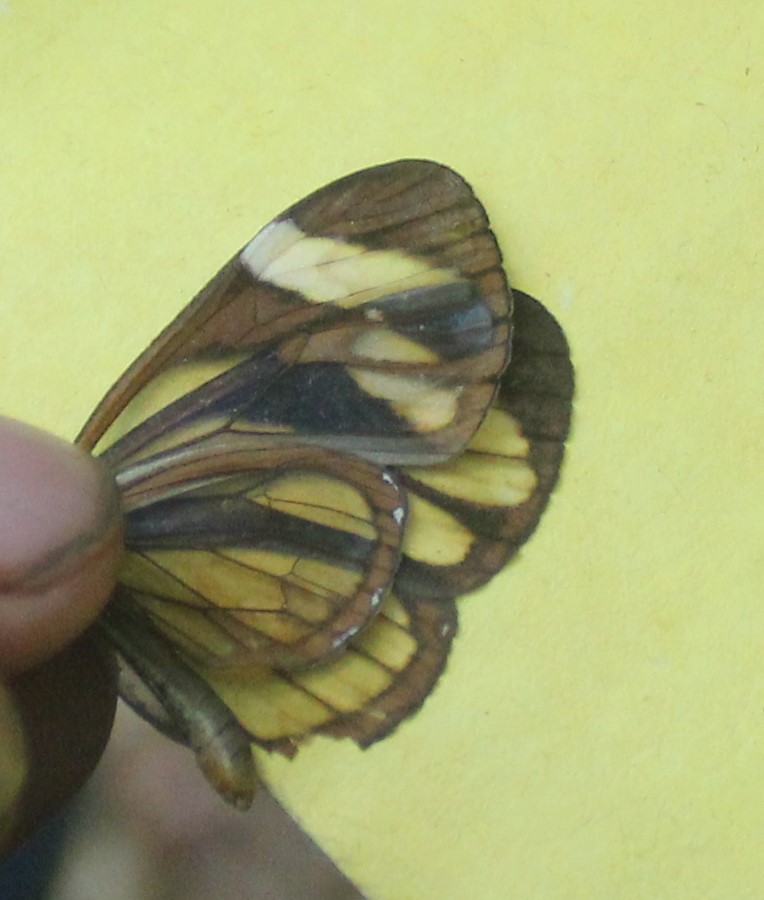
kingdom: Animalia
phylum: Arthropoda
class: Insecta
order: Lepidoptera
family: Nymphalidae
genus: Ithomia
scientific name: Ithomia patilla
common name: Patilla clearwing
